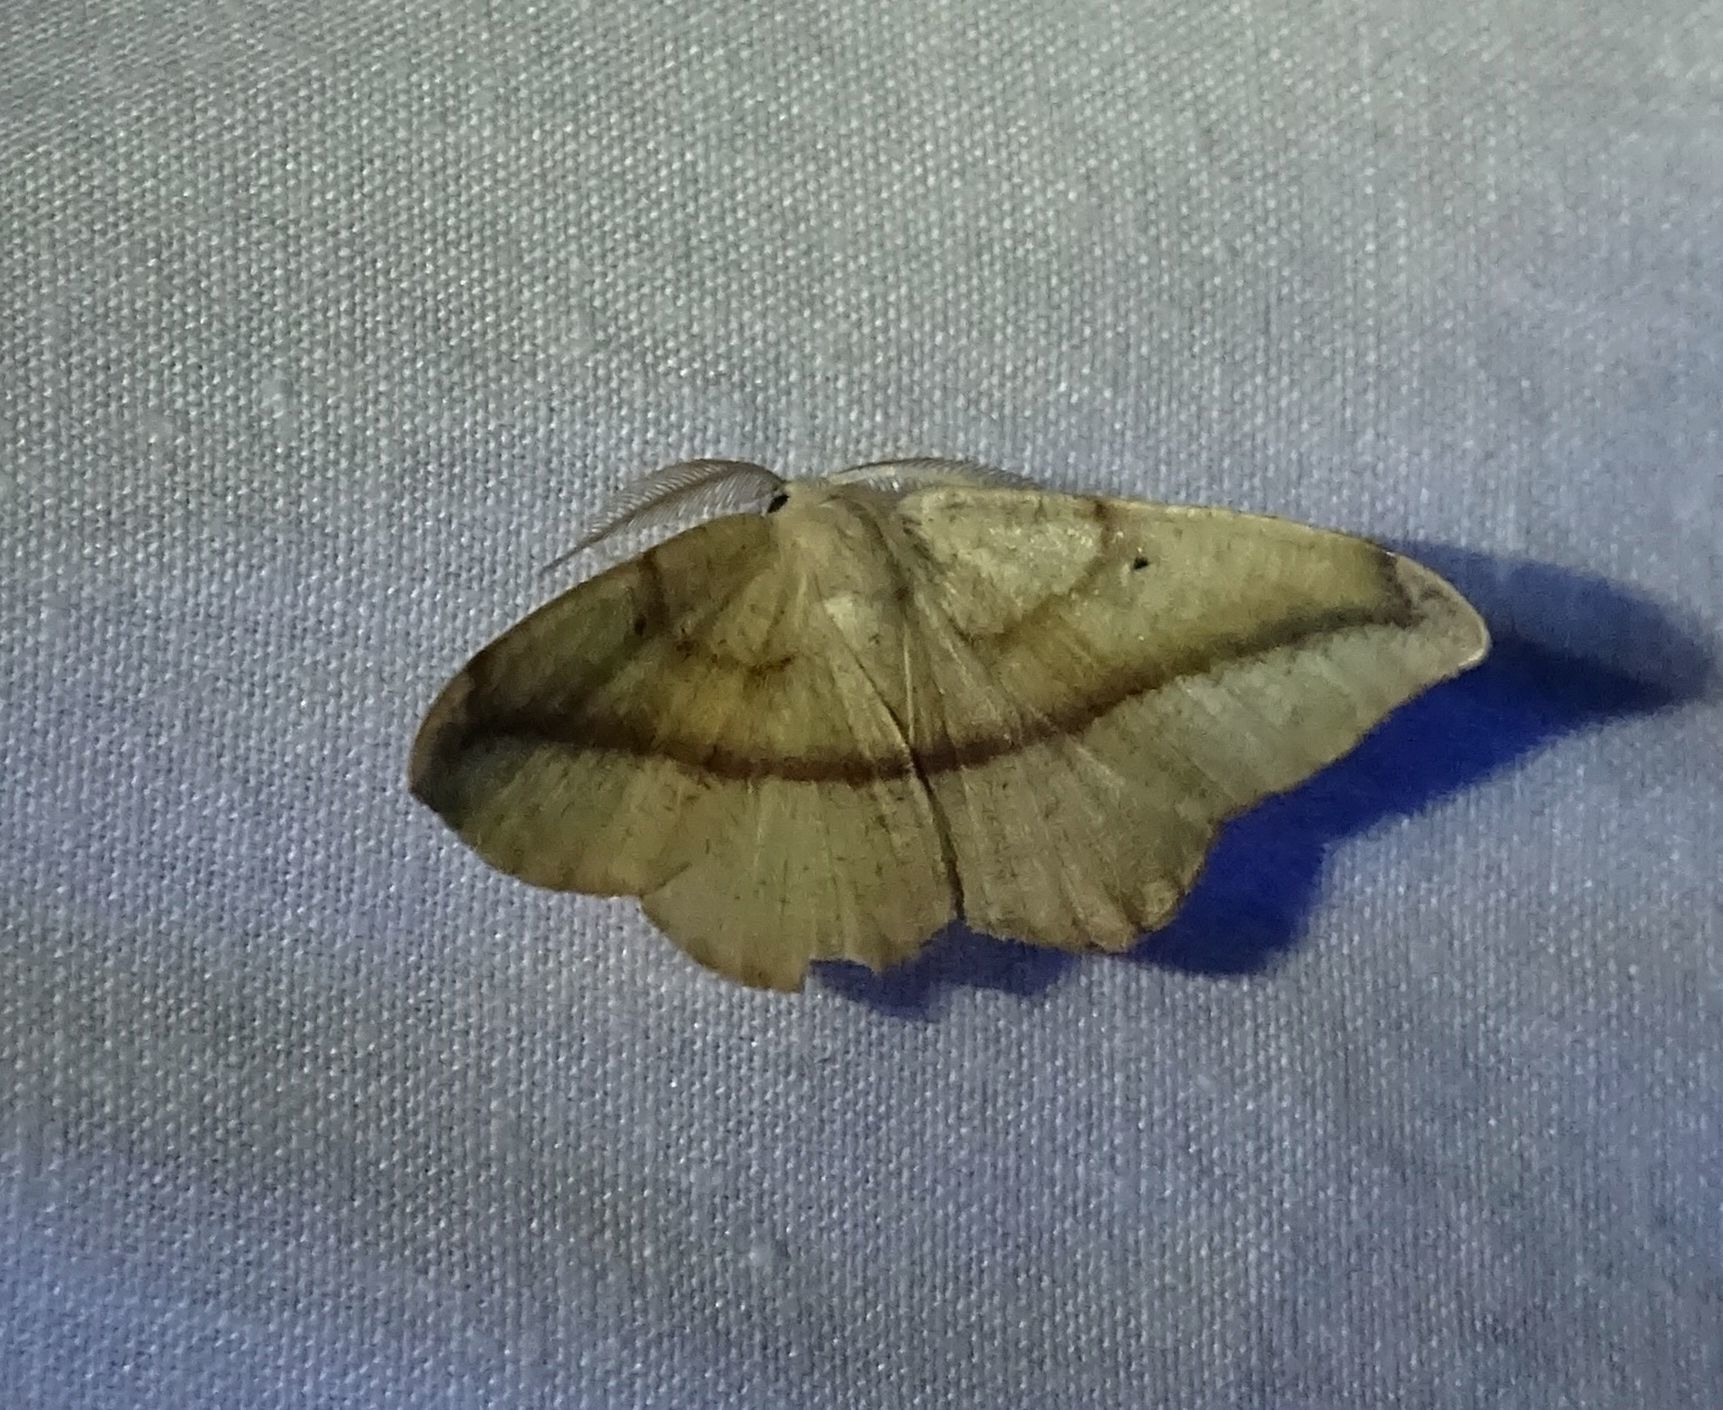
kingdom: Animalia
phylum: Arthropoda
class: Insecta
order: Lepidoptera
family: Geometridae
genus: Patalene
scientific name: Patalene olyzonaria
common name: Juniper geometer moth
